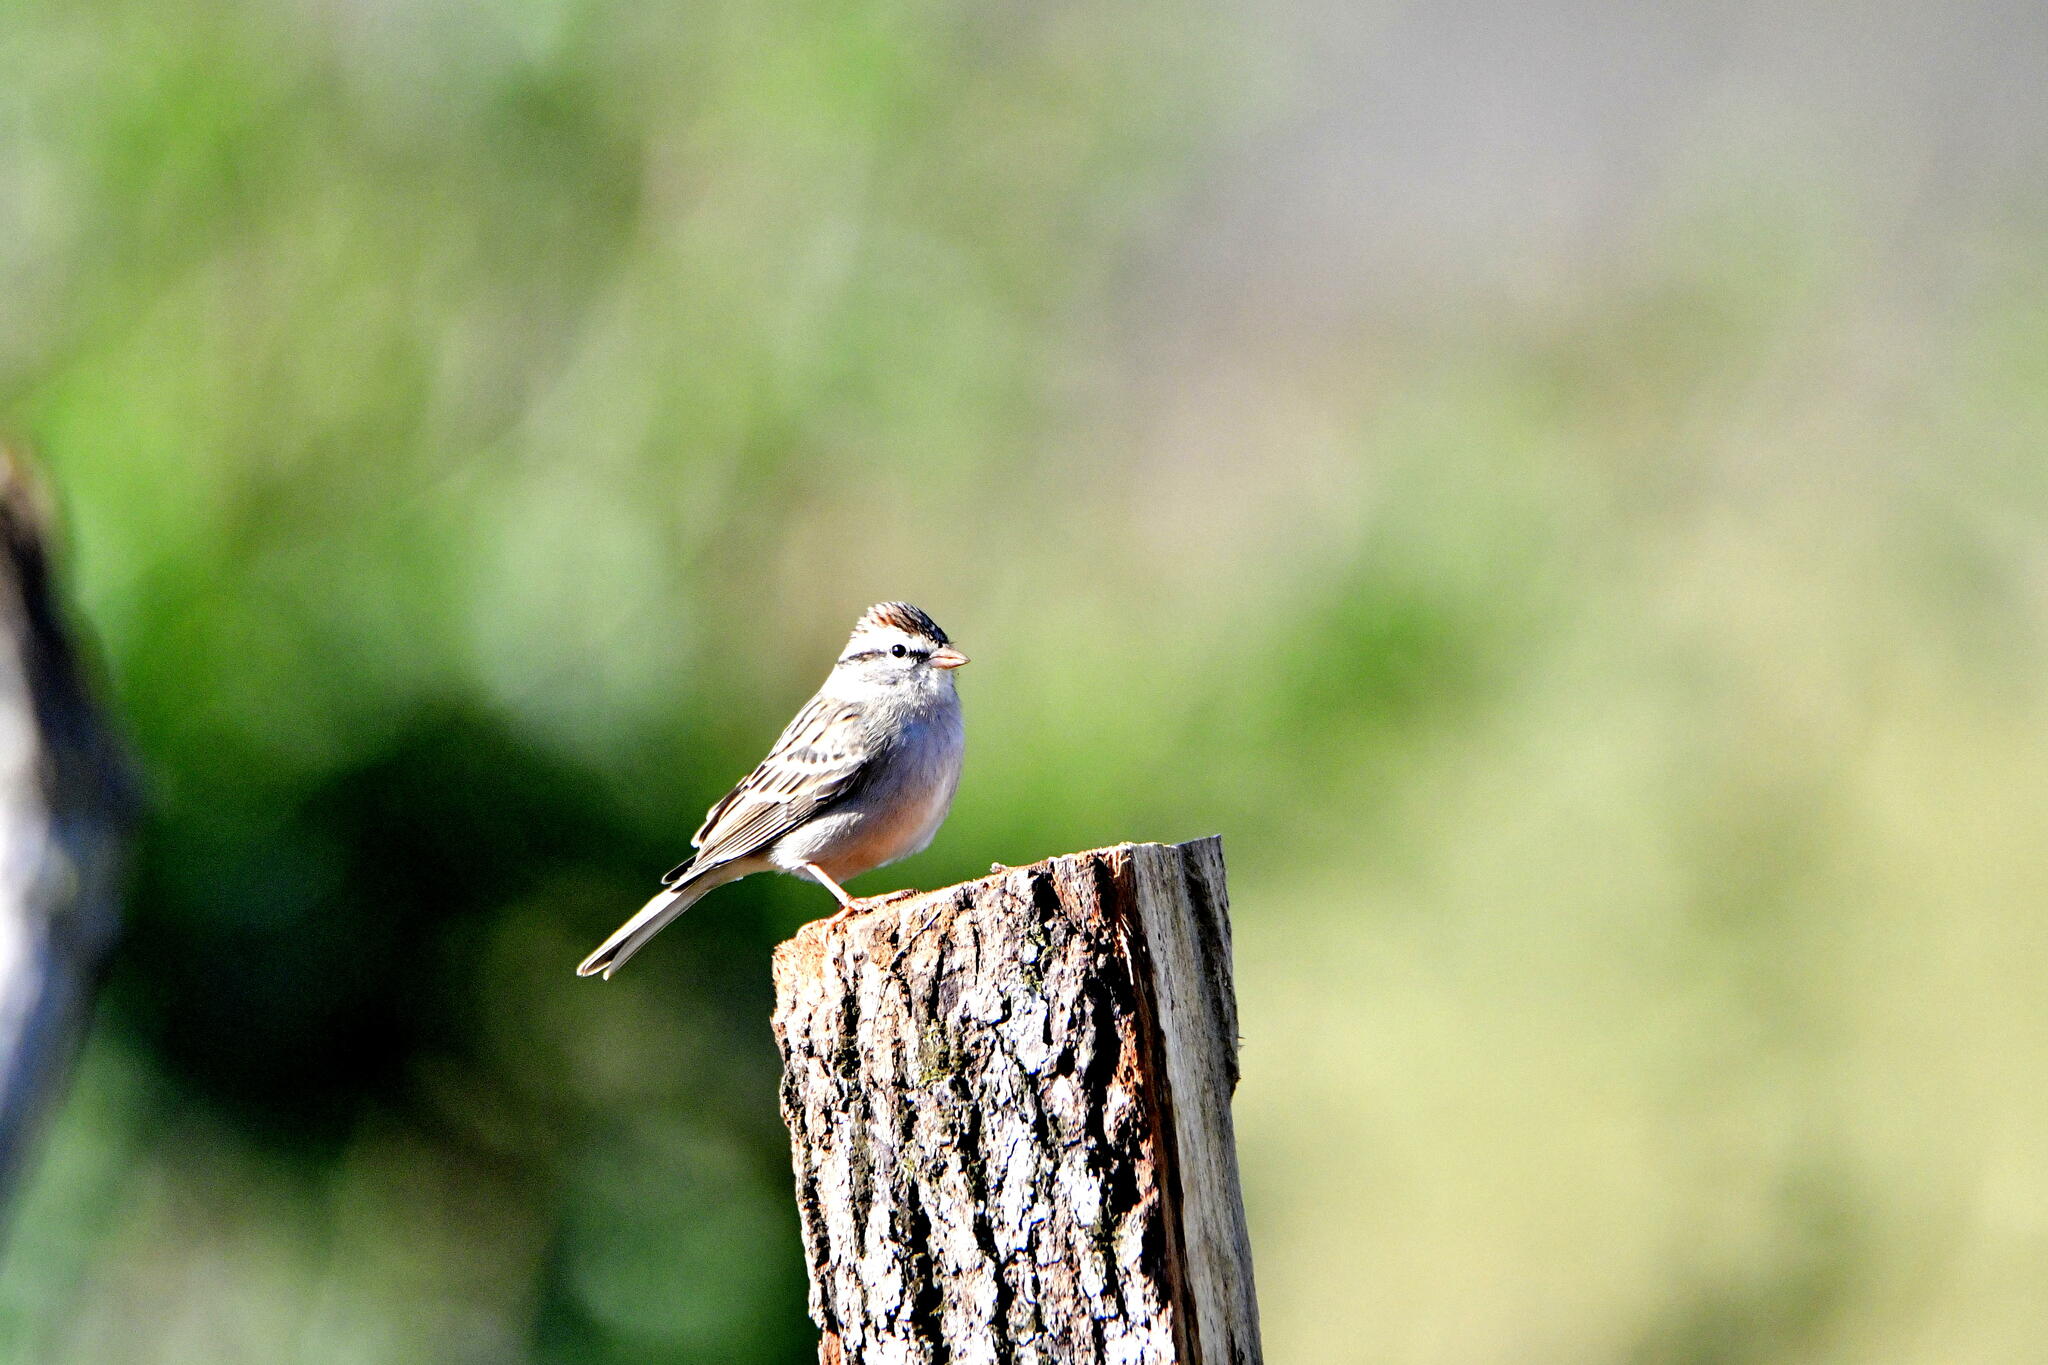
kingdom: Animalia
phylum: Chordata
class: Aves
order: Passeriformes
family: Passerellidae
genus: Spizella
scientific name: Spizella passerina
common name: Chipping sparrow
